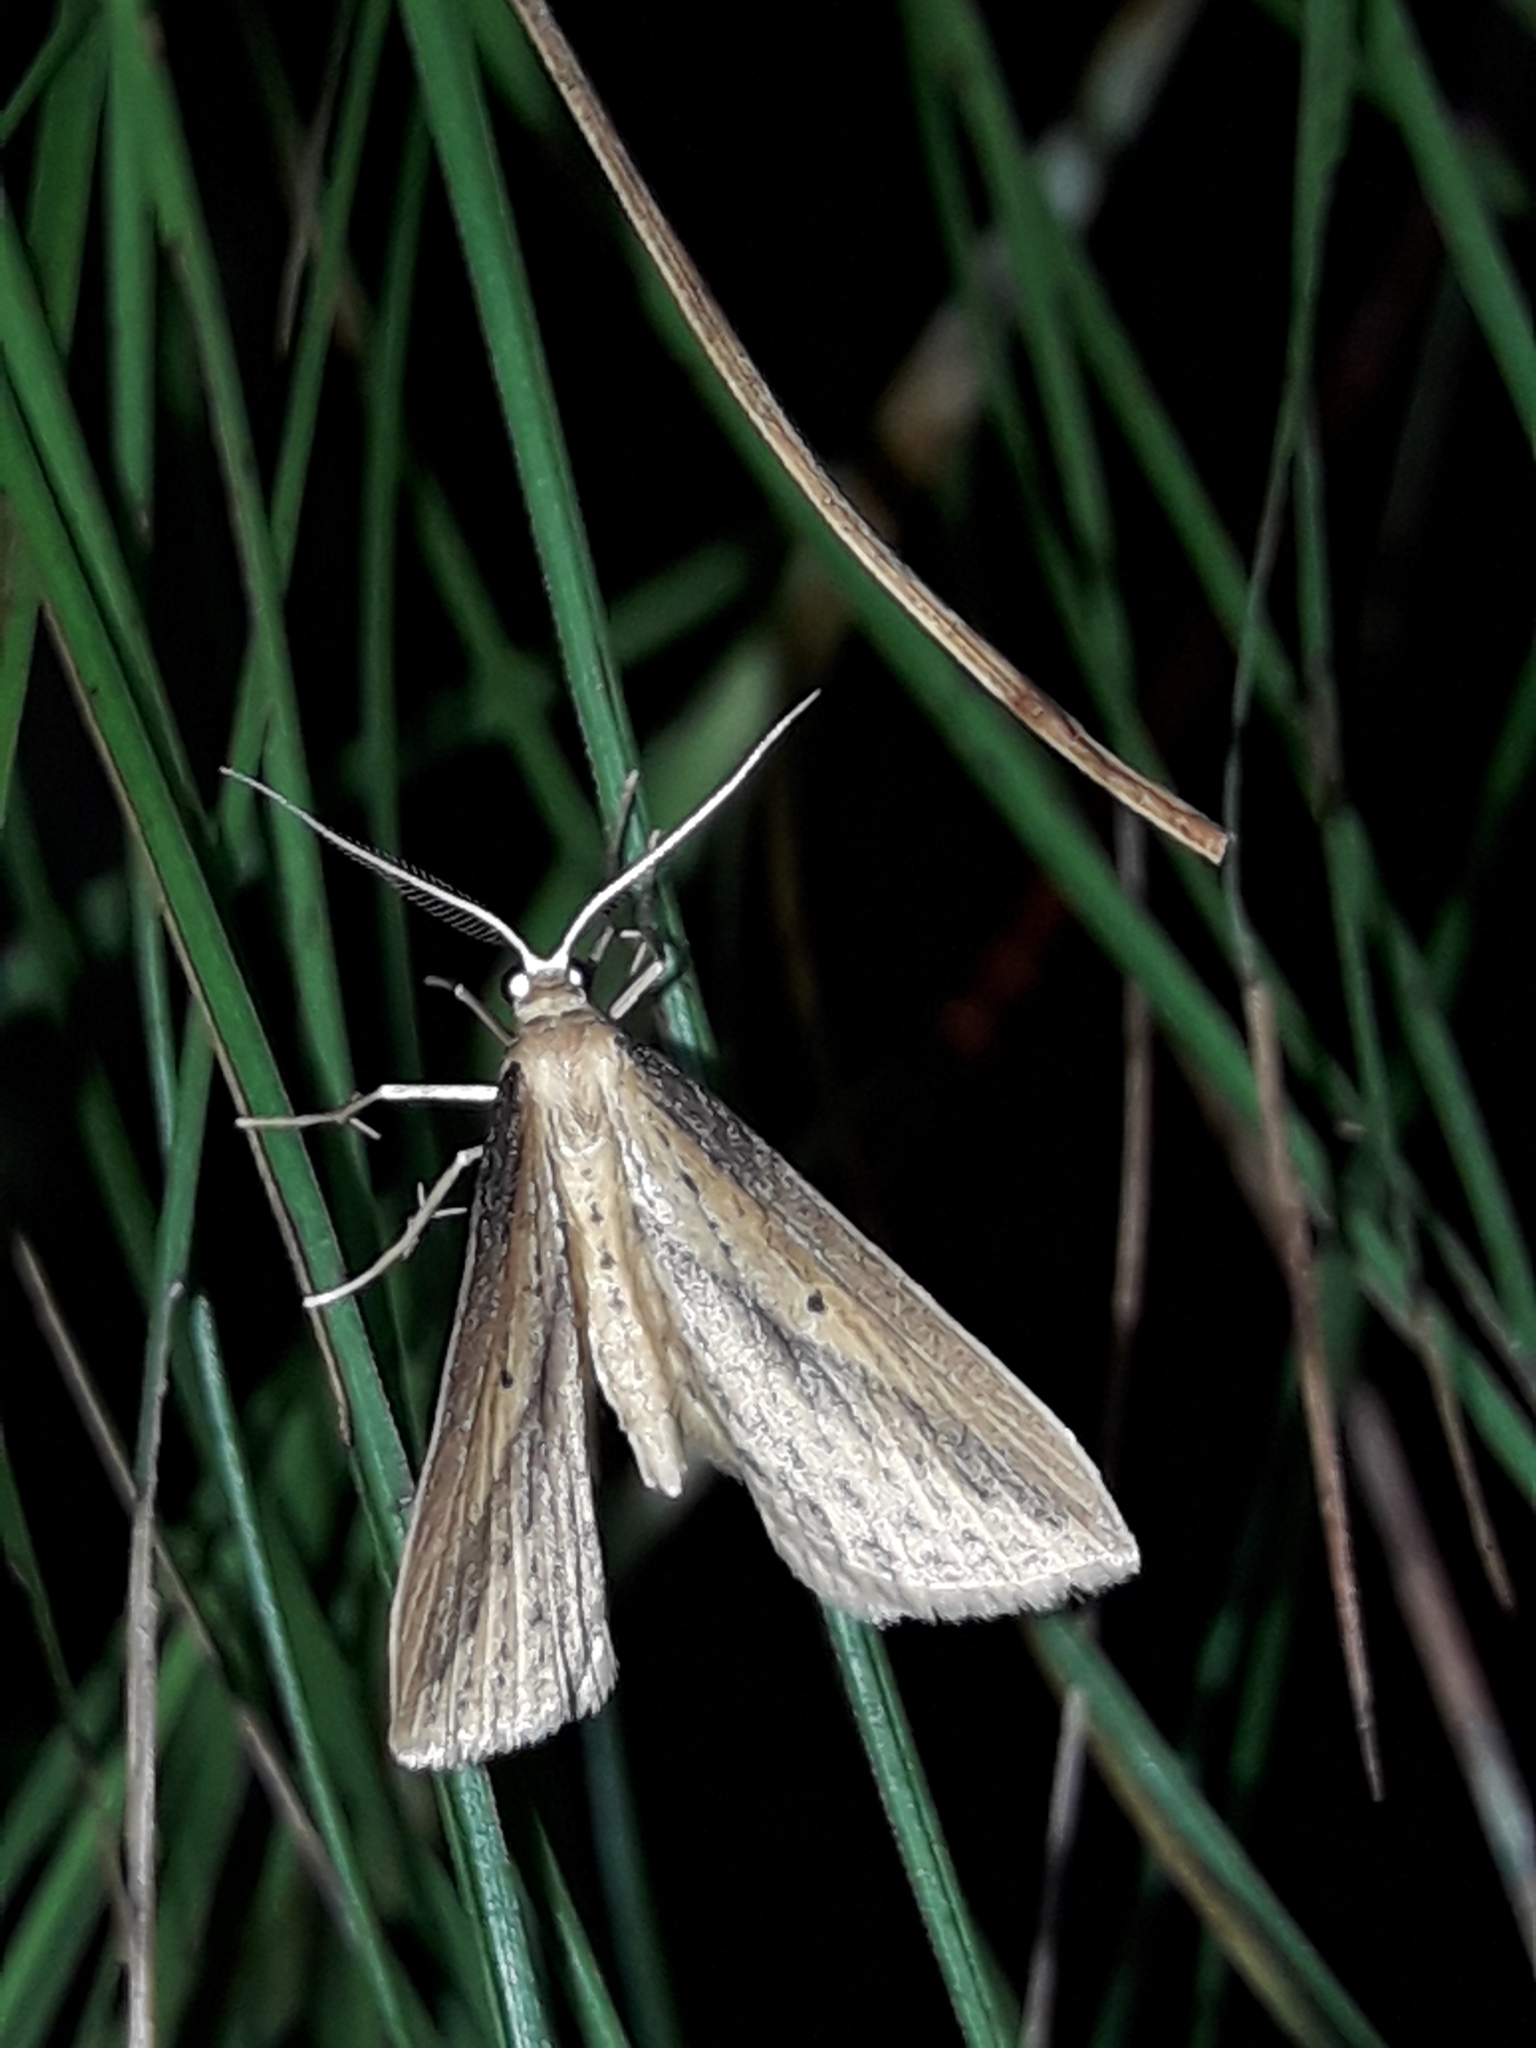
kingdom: Animalia
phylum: Arthropoda
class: Insecta
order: Lepidoptera
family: Geometridae
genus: Epiphryne
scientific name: Epiphryne charidema
